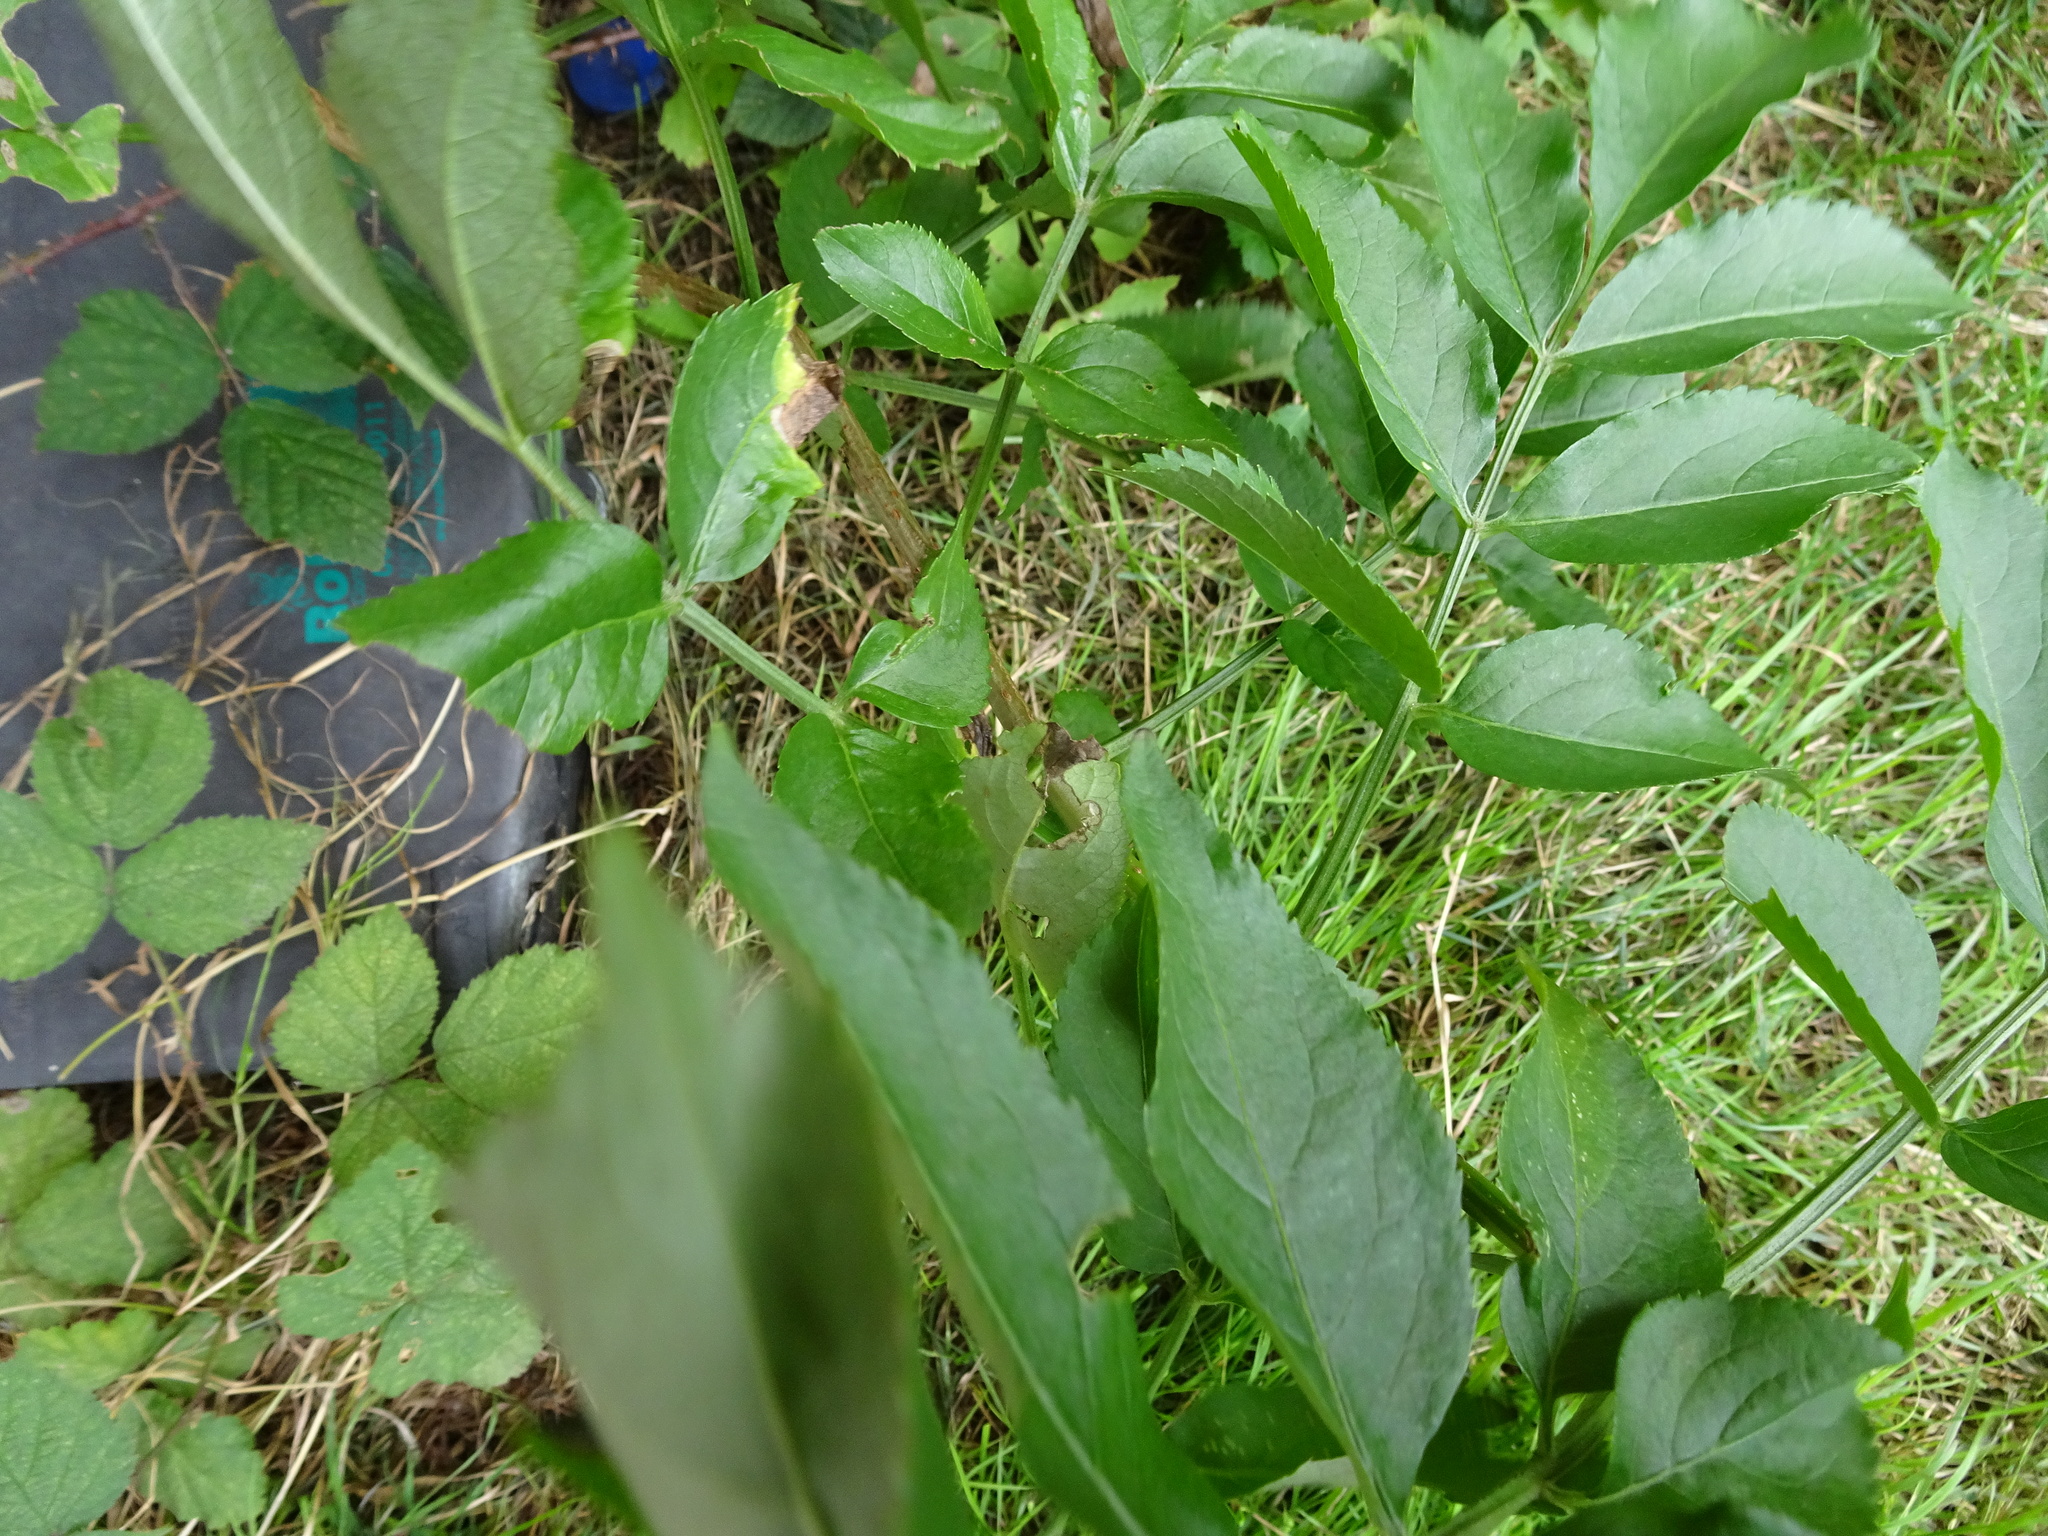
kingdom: Plantae
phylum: Tracheophyta
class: Magnoliopsida
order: Dipsacales
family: Viburnaceae
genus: Sambucus
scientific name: Sambucus nigra
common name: Elder
